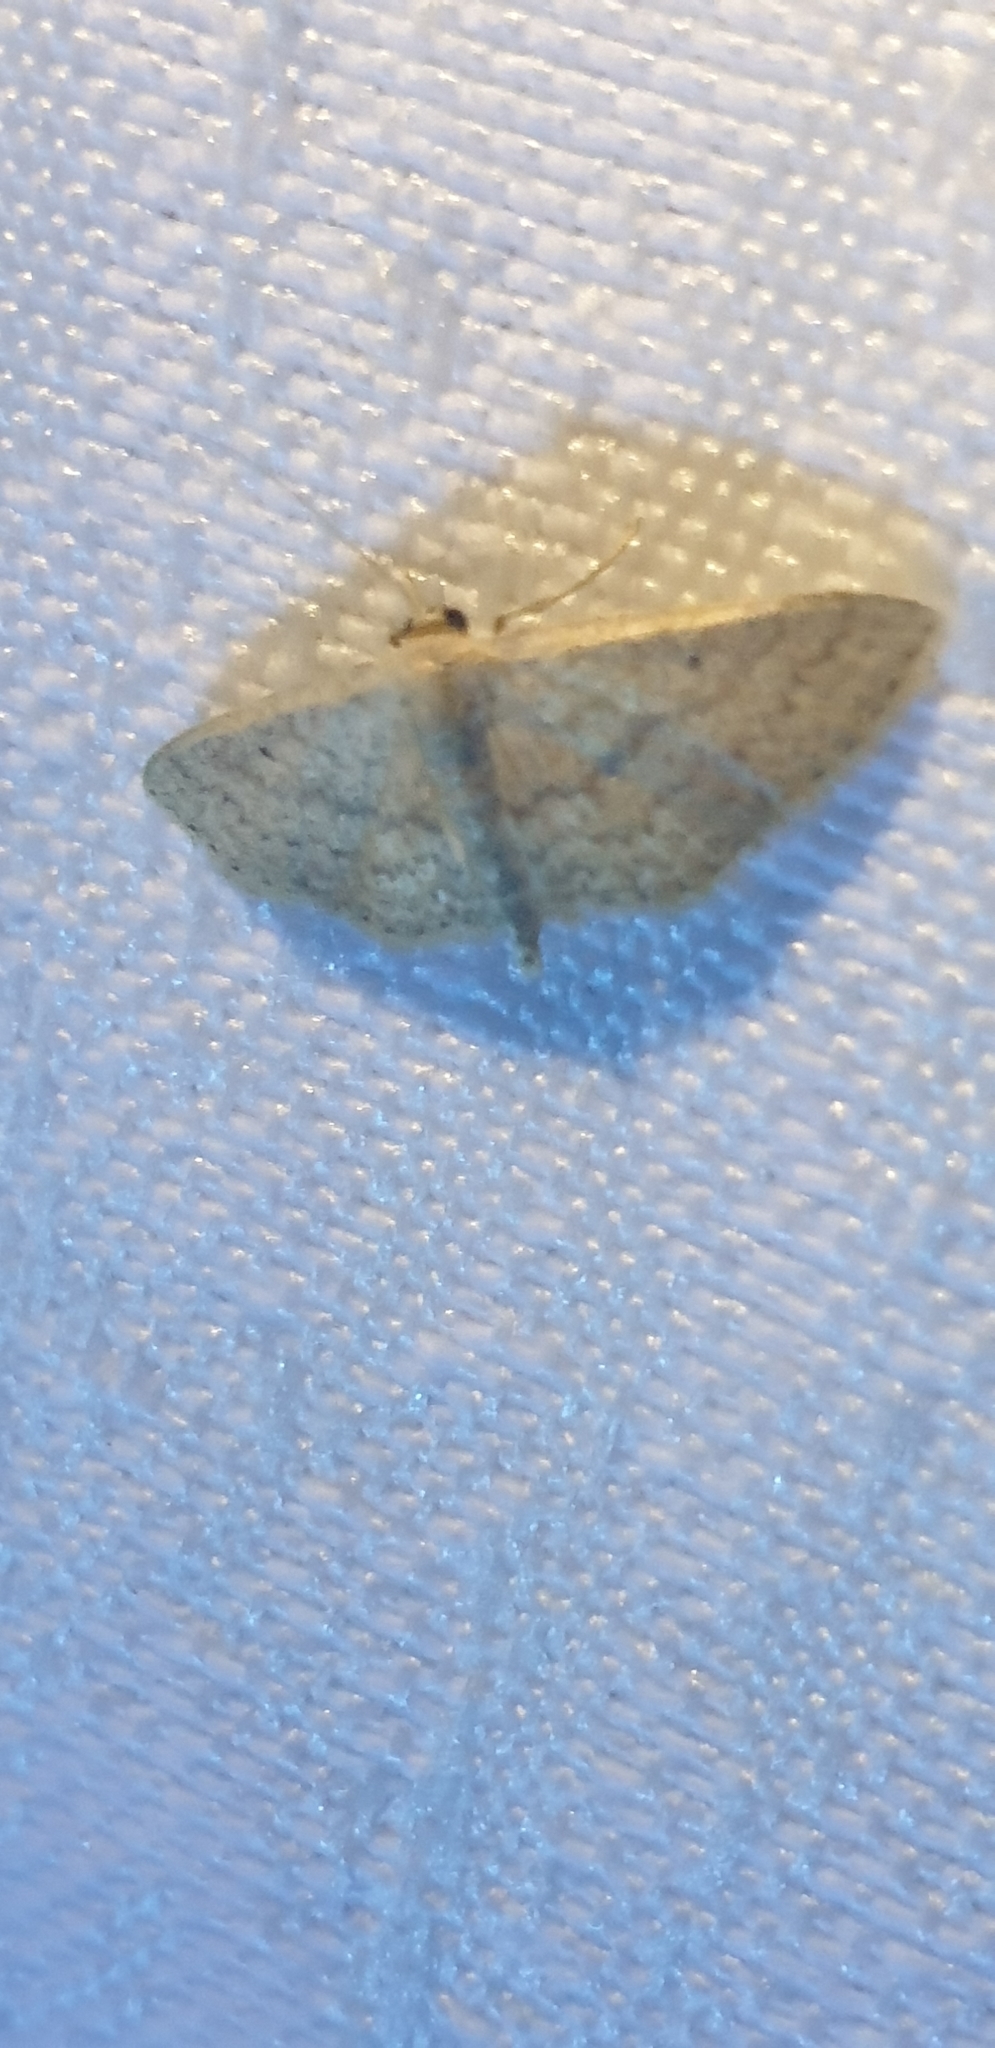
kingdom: Animalia
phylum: Arthropoda
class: Insecta
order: Lepidoptera
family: Geometridae
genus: Scopula
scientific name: Scopula hypochra
